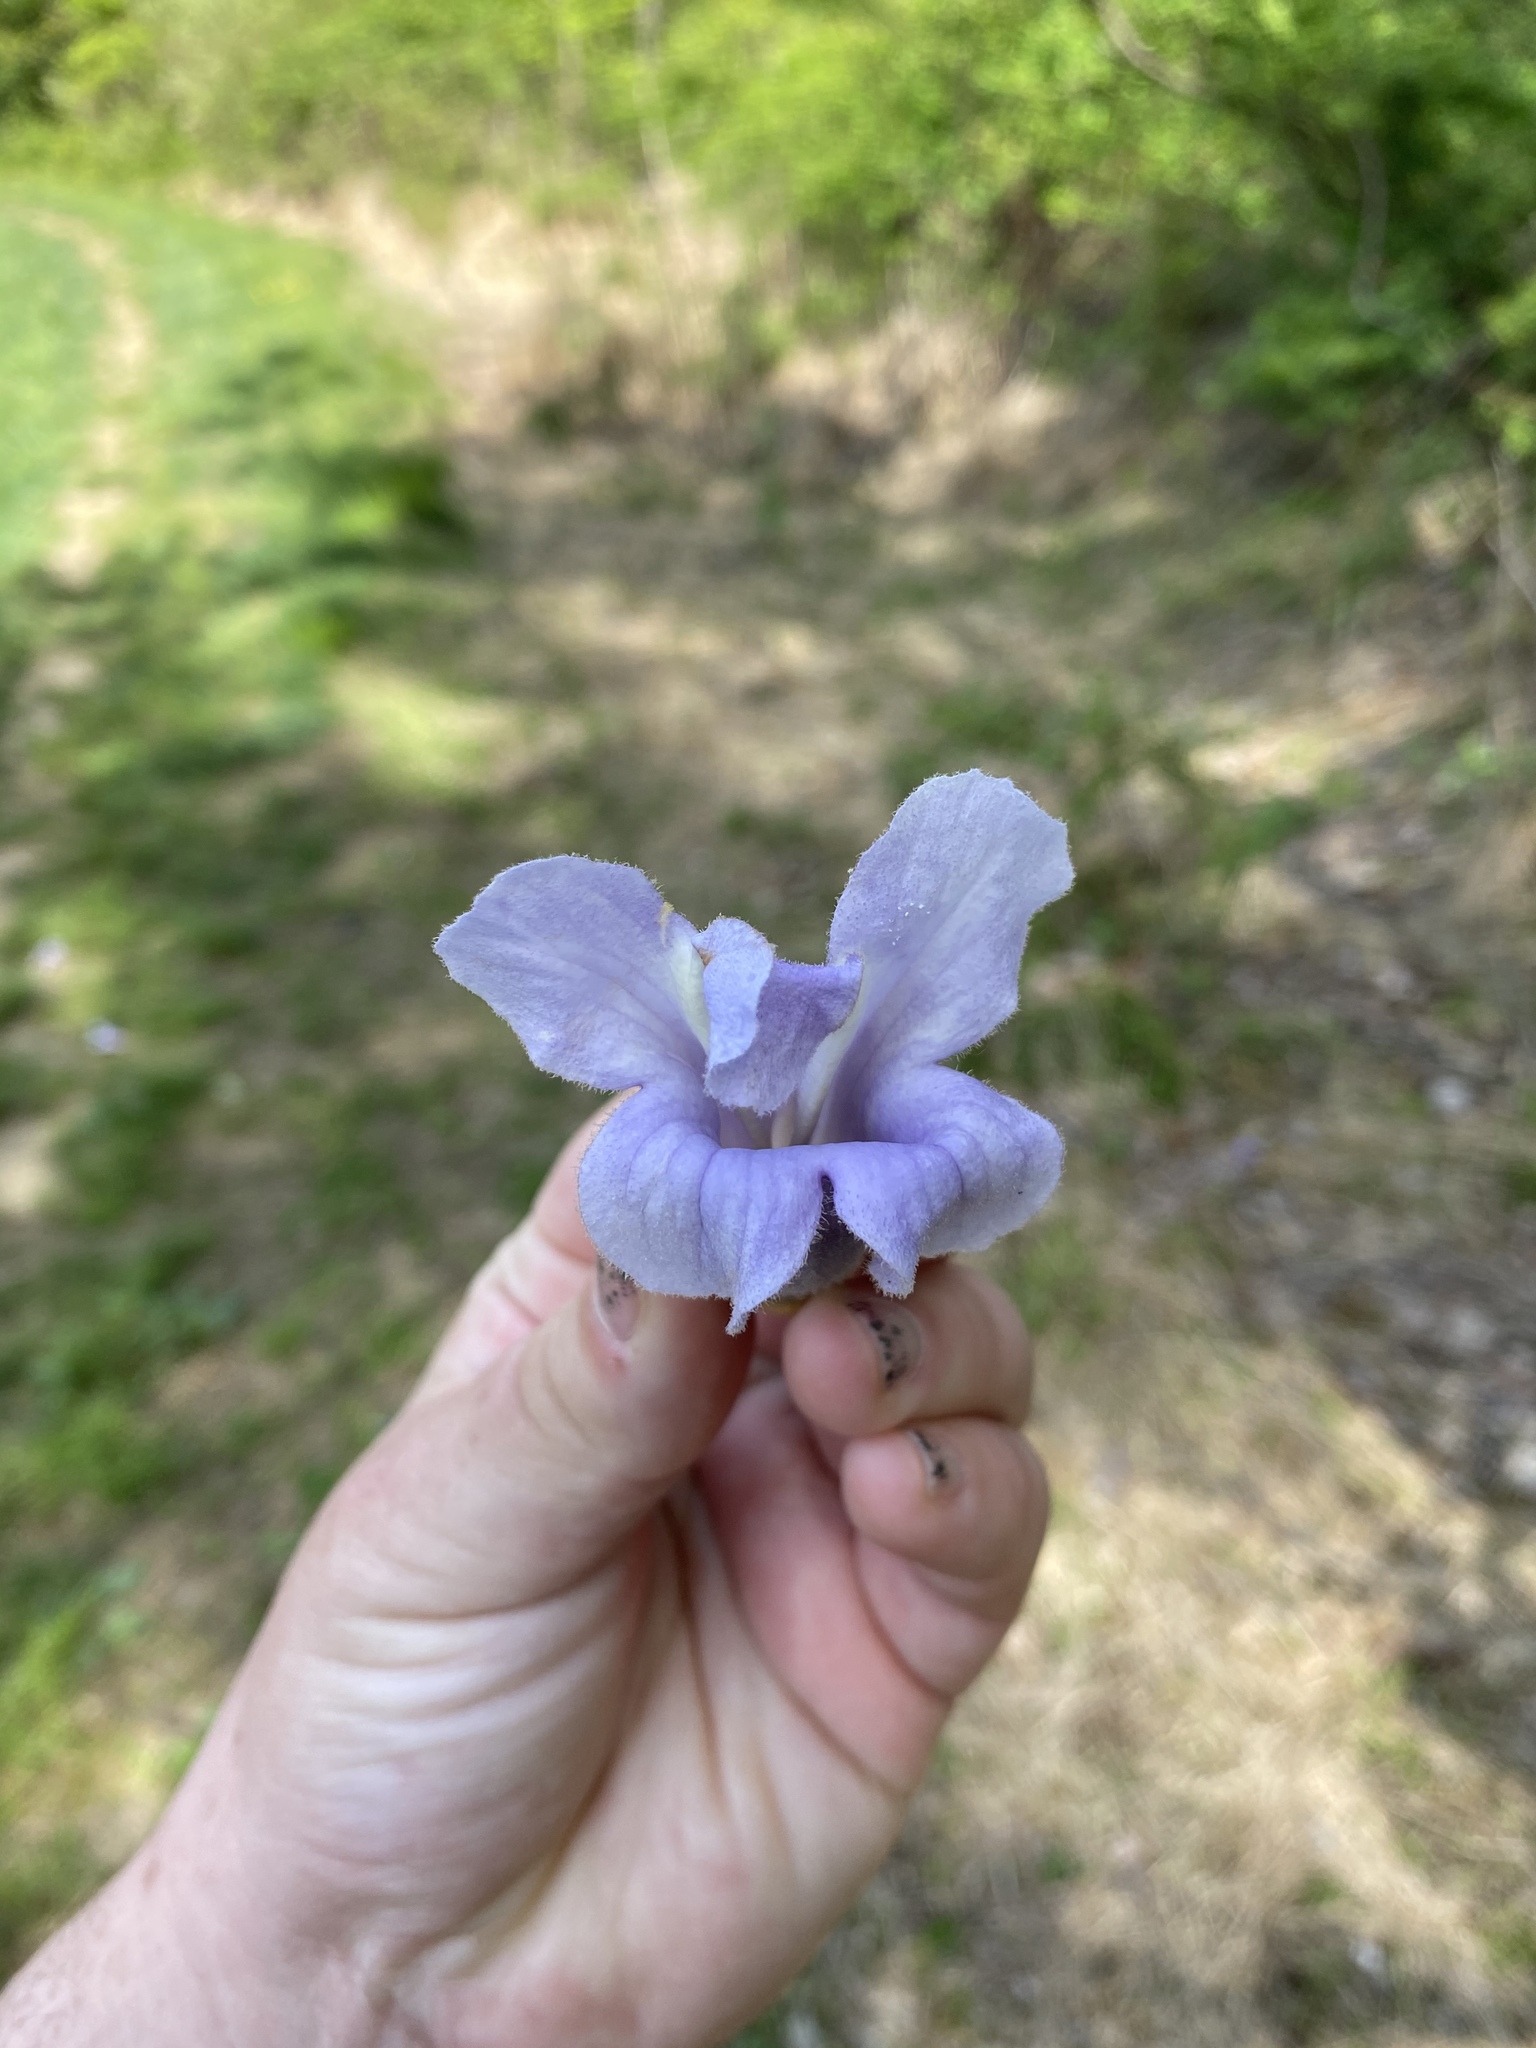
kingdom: Plantae
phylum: Tracheophyta
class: Magnoliopsida
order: Lamiales
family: Paulowniaceae
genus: Paulownia
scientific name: Paulownia tomentosa
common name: Foxglove-tree
